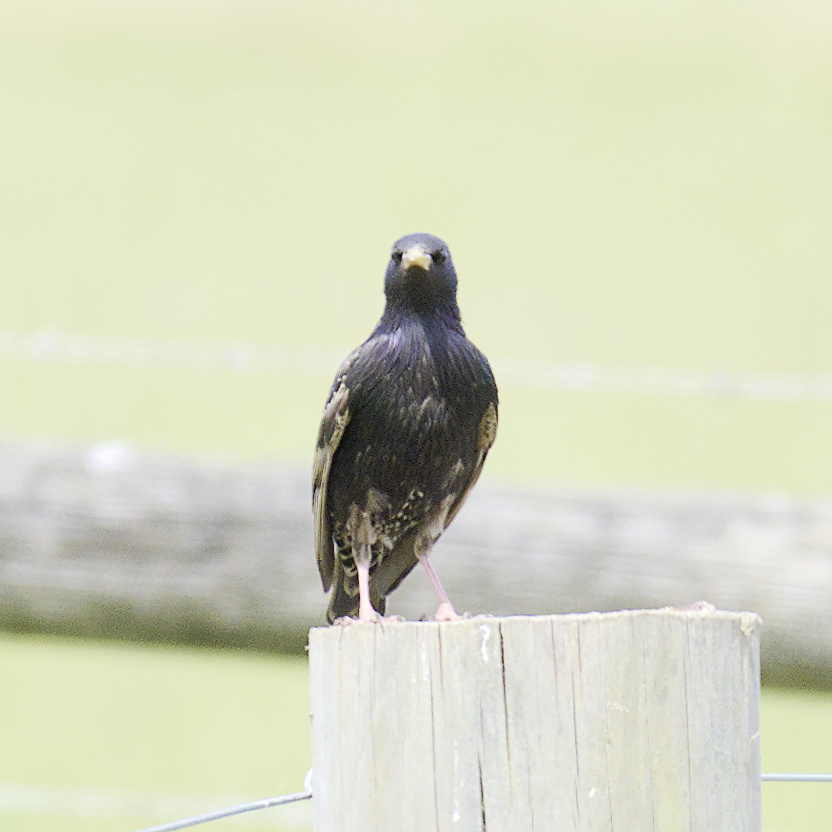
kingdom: Animalia
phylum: Chordata
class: Aves
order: Passeriformes
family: Sturnidae
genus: Sturnus
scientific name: Sturnus vulgaris
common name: Common starling
